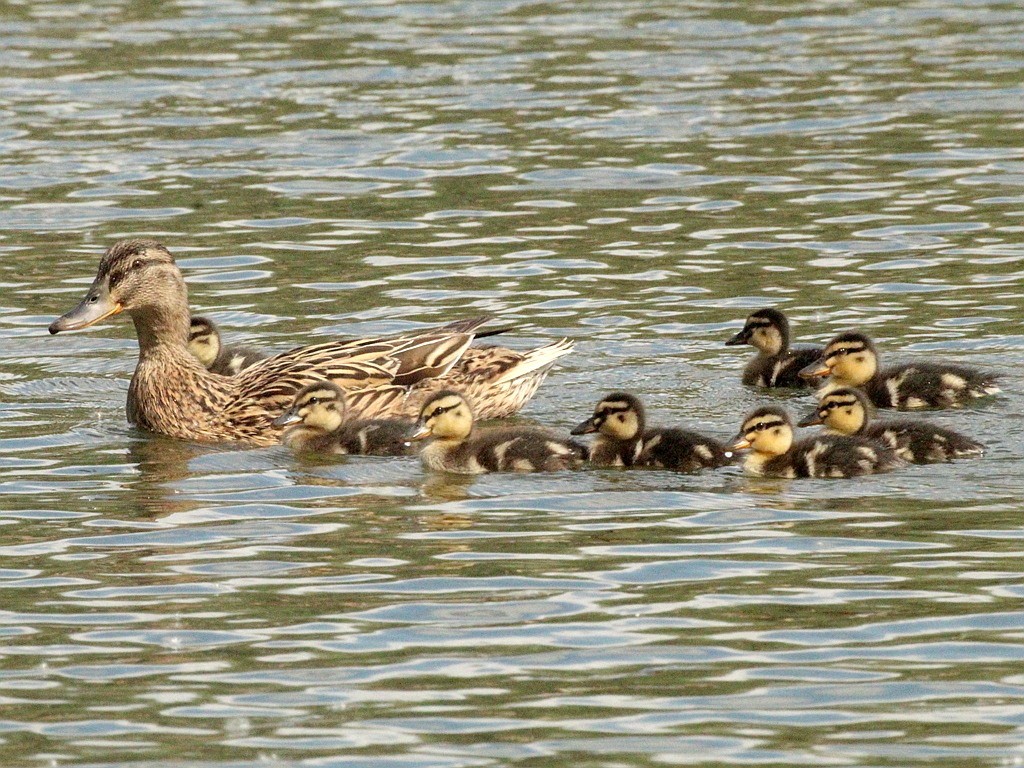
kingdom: Animalia
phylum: Chordata
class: Aves
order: Anseriformes
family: Anatidae
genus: Anas
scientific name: Anas platyrhynchos
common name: Mallard
